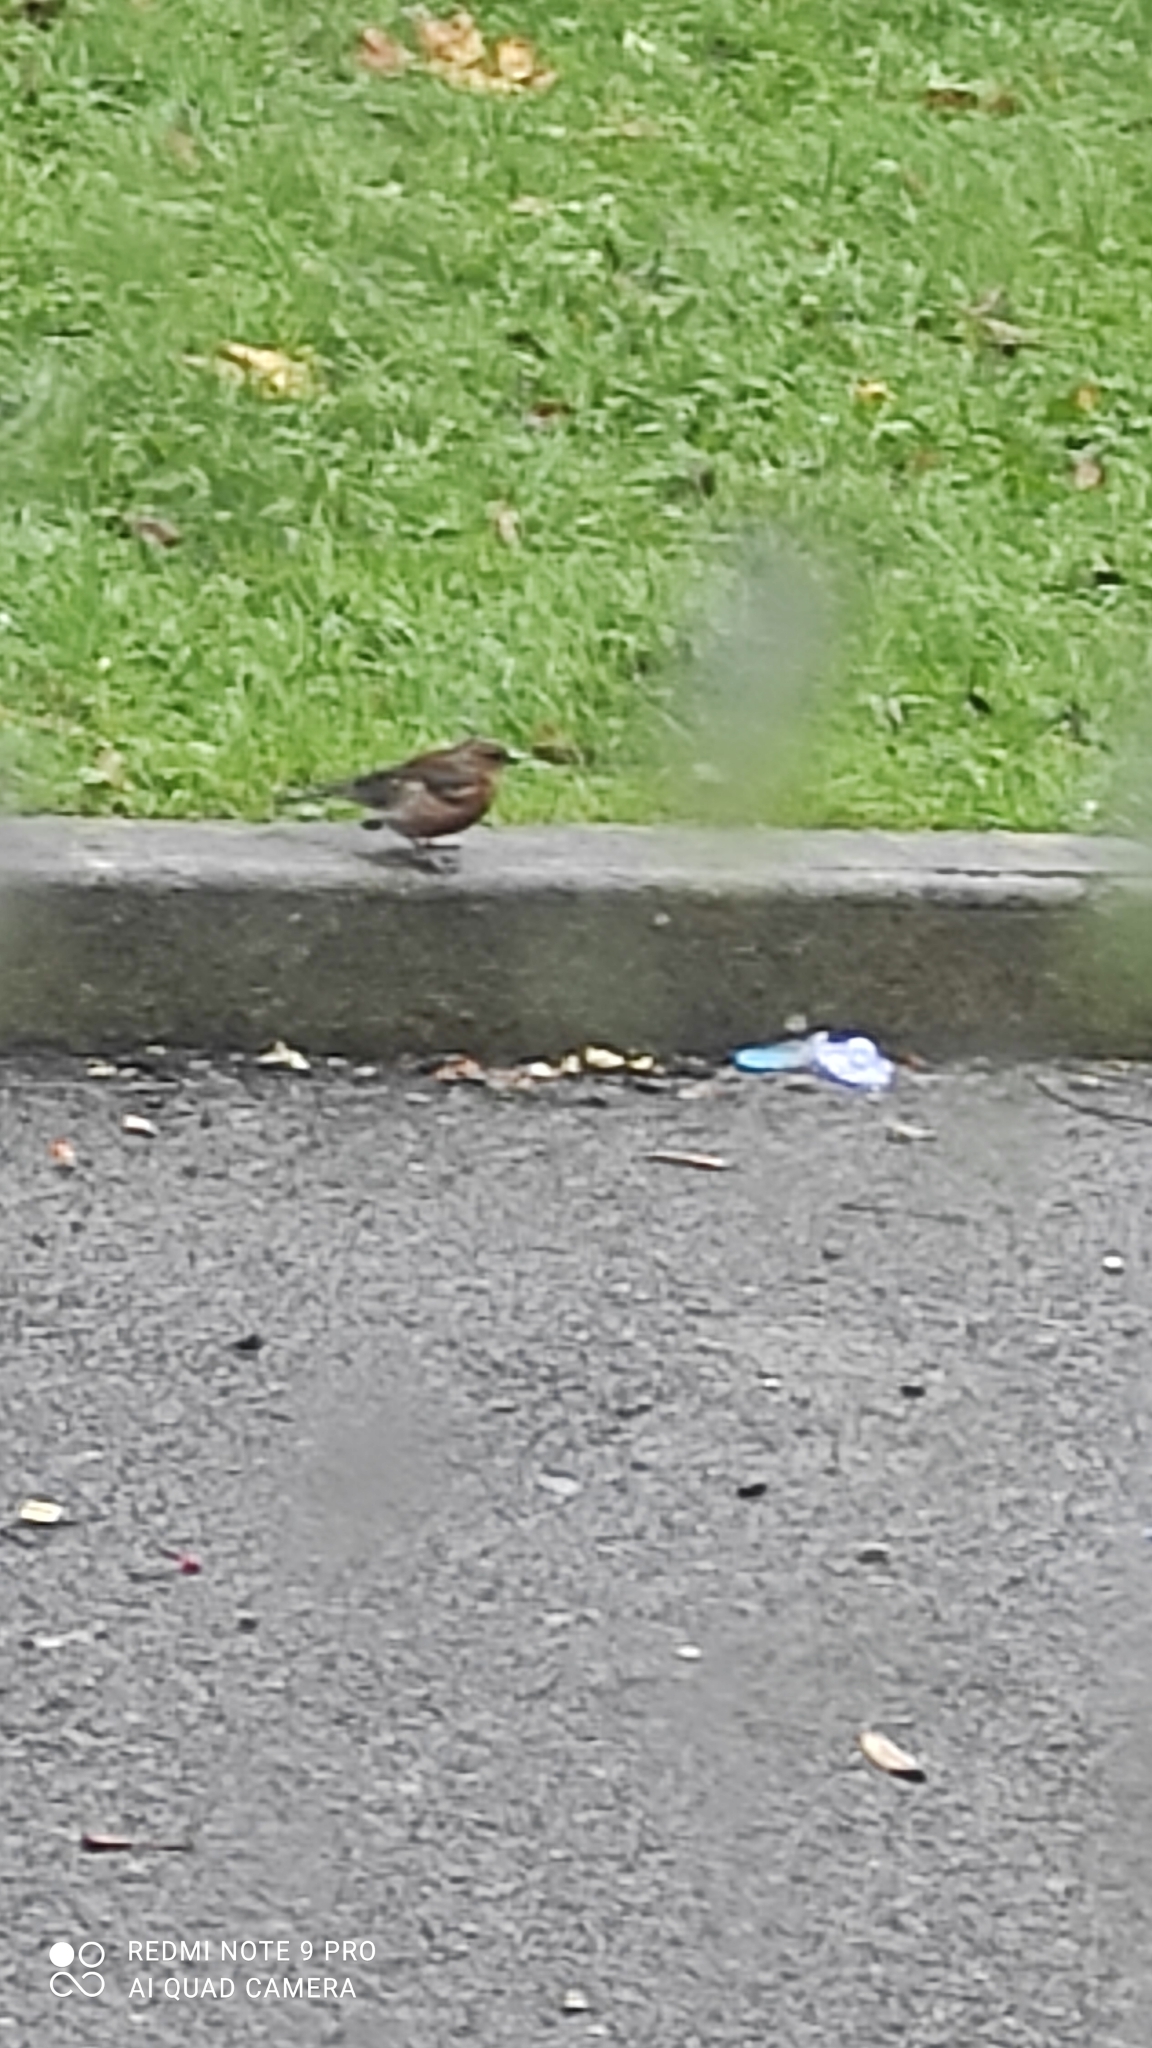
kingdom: Animalia
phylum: Chordata
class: Aves
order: Passeriformes
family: Fringillidae
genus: Fringilla
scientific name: Fringilla coelebs
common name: Common chaffinch
